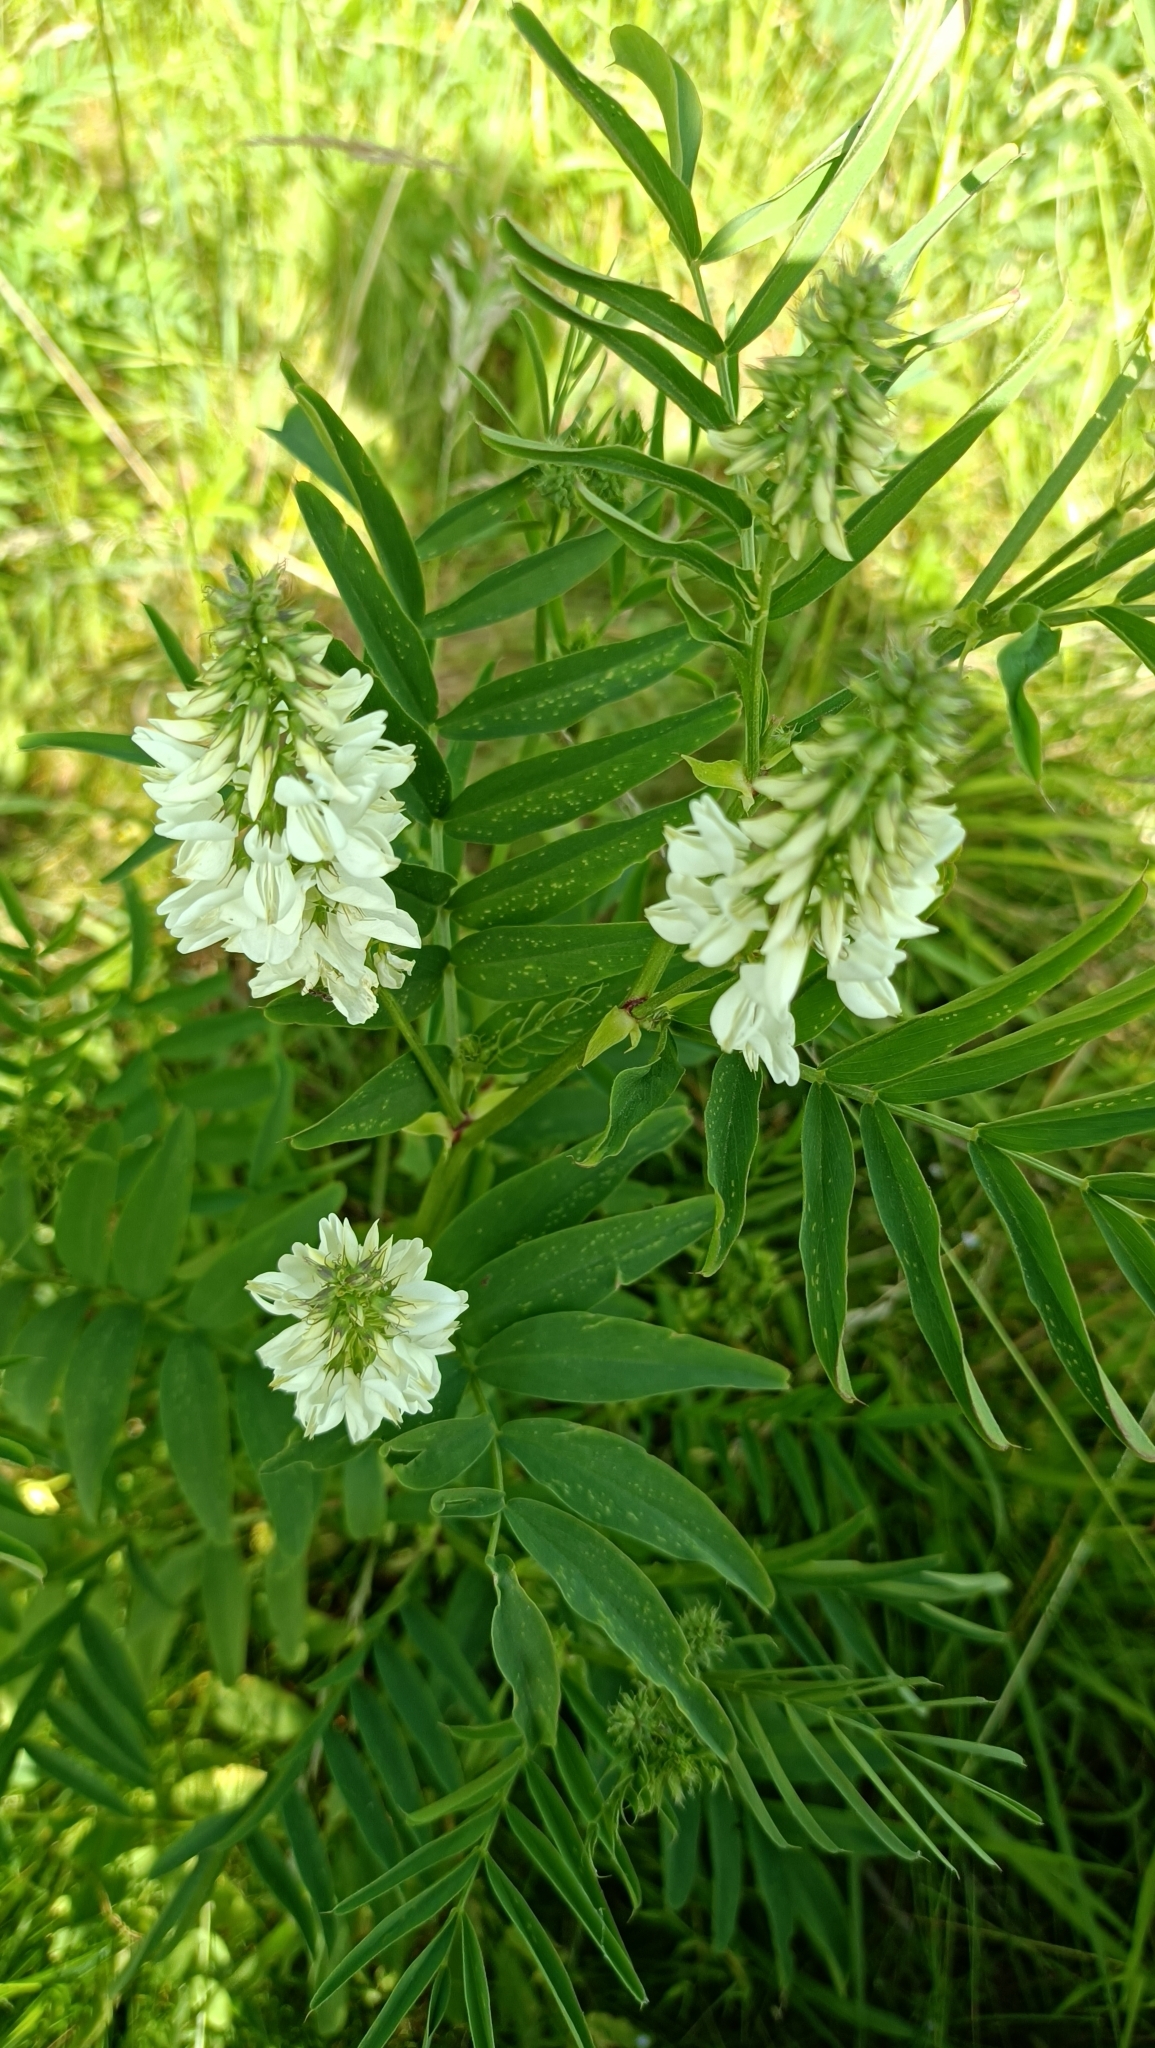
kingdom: Plantae
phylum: Tracheophyta
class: Magnoliopsida
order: Fabales
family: Fabaceae
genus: Galega
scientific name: Galega officinalis
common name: Goat's-rue
